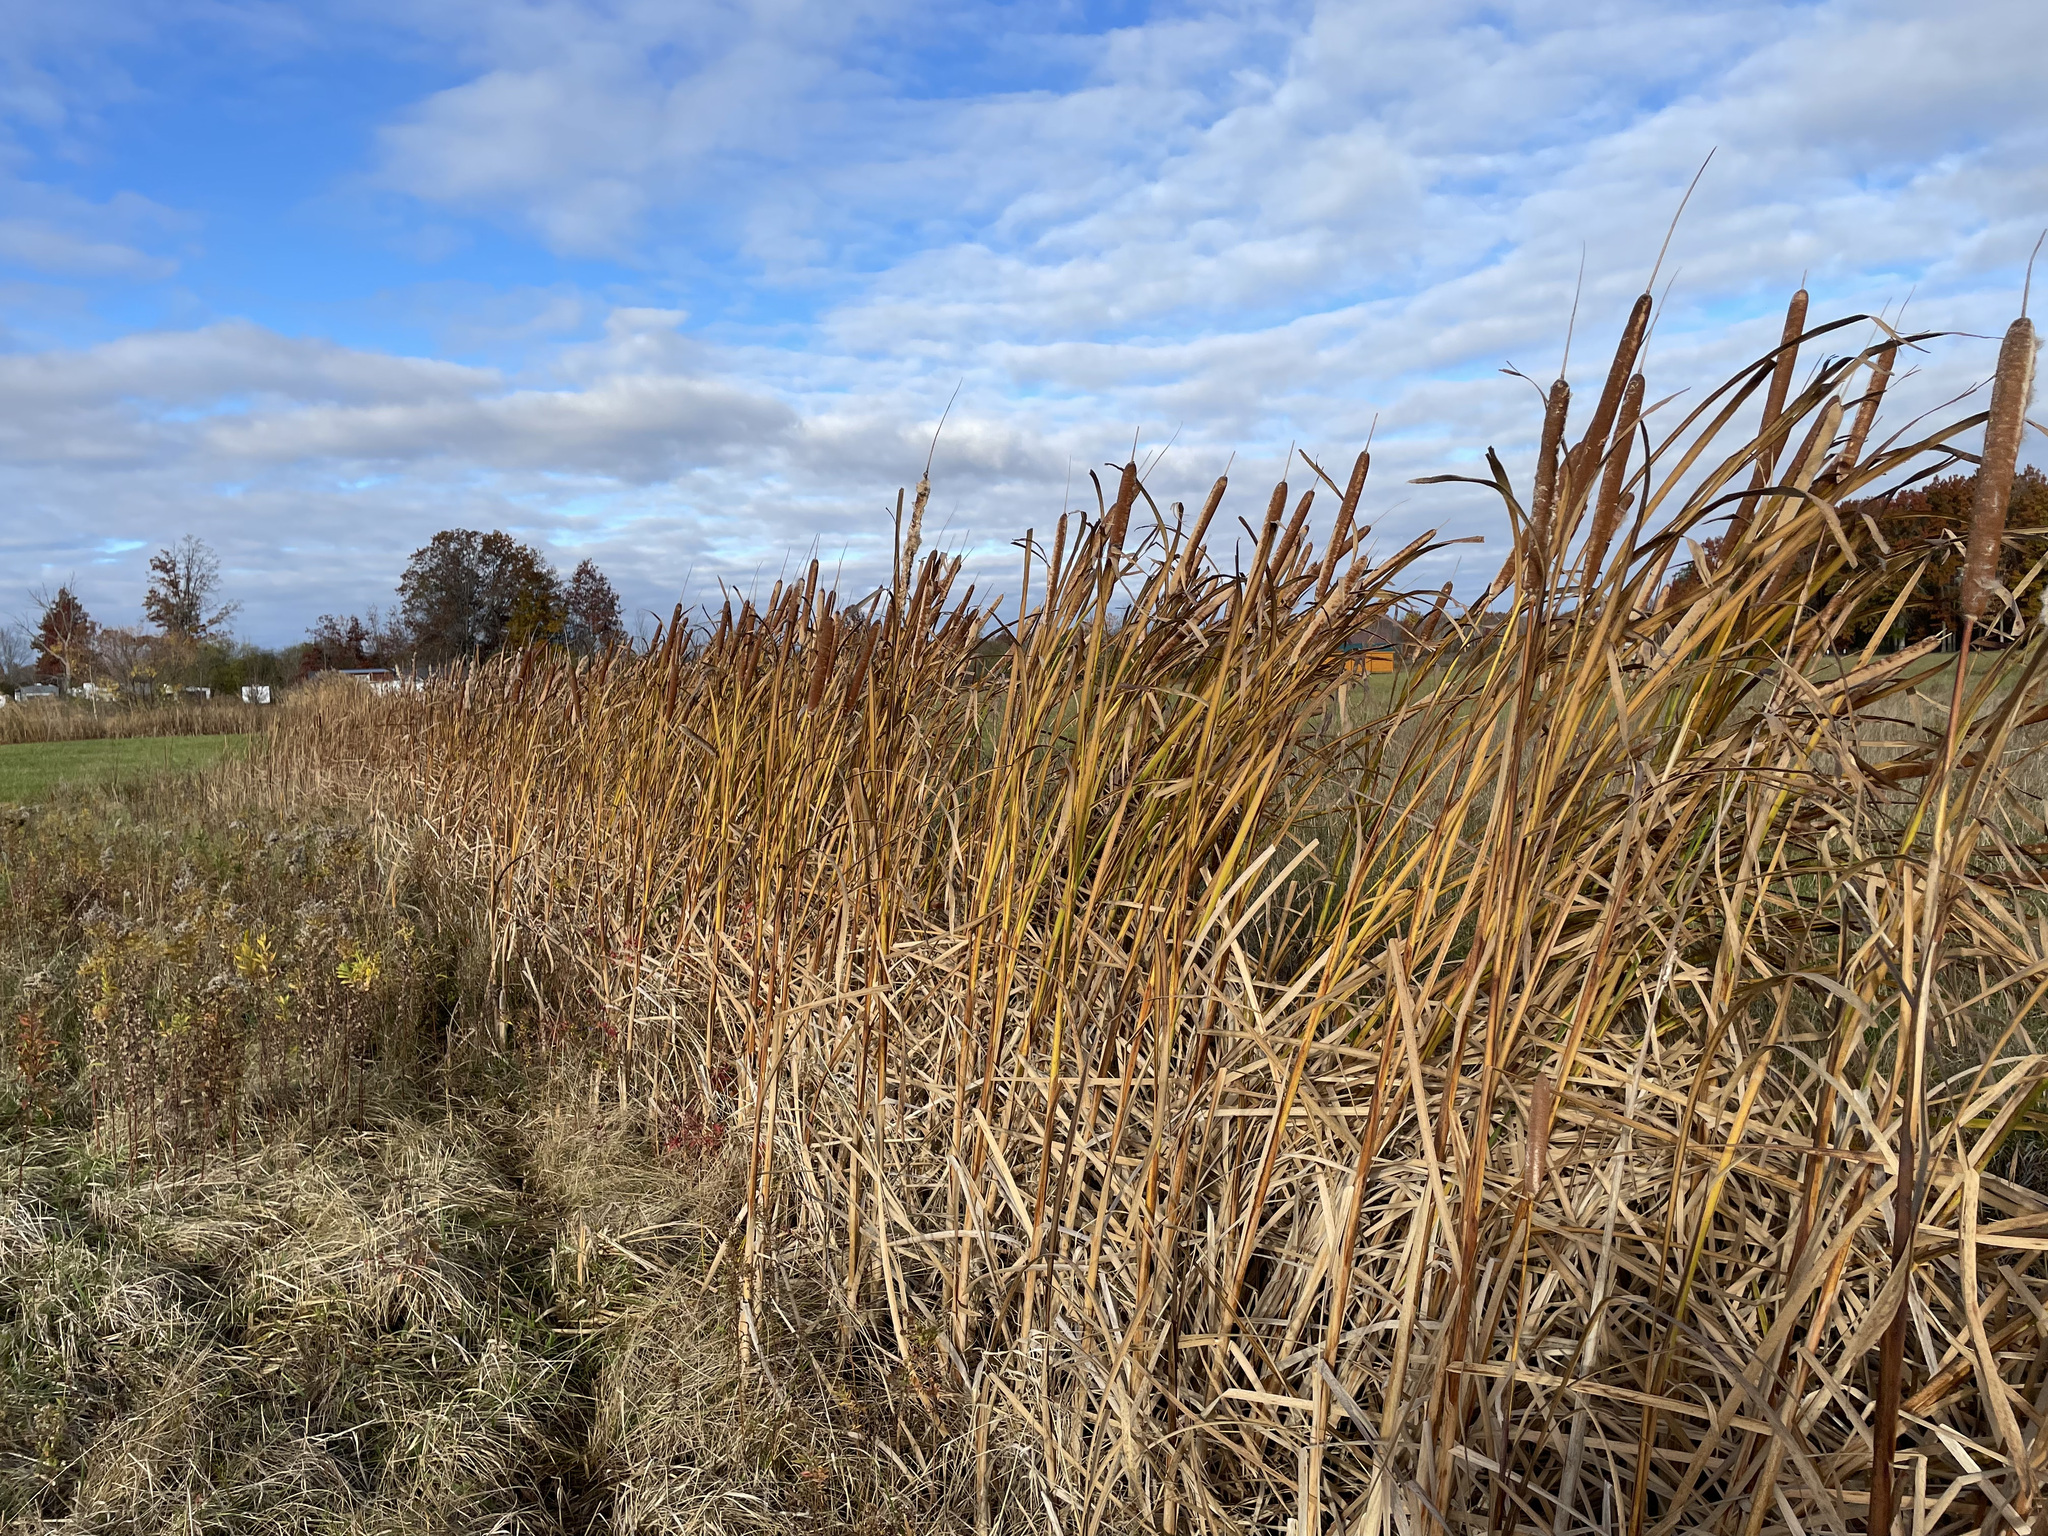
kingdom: Plantae
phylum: Tracheophyta
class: Liliopsida
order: Poales
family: Typhaceae
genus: Typha
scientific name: Typha angustifolia
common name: Lesser bulrush
